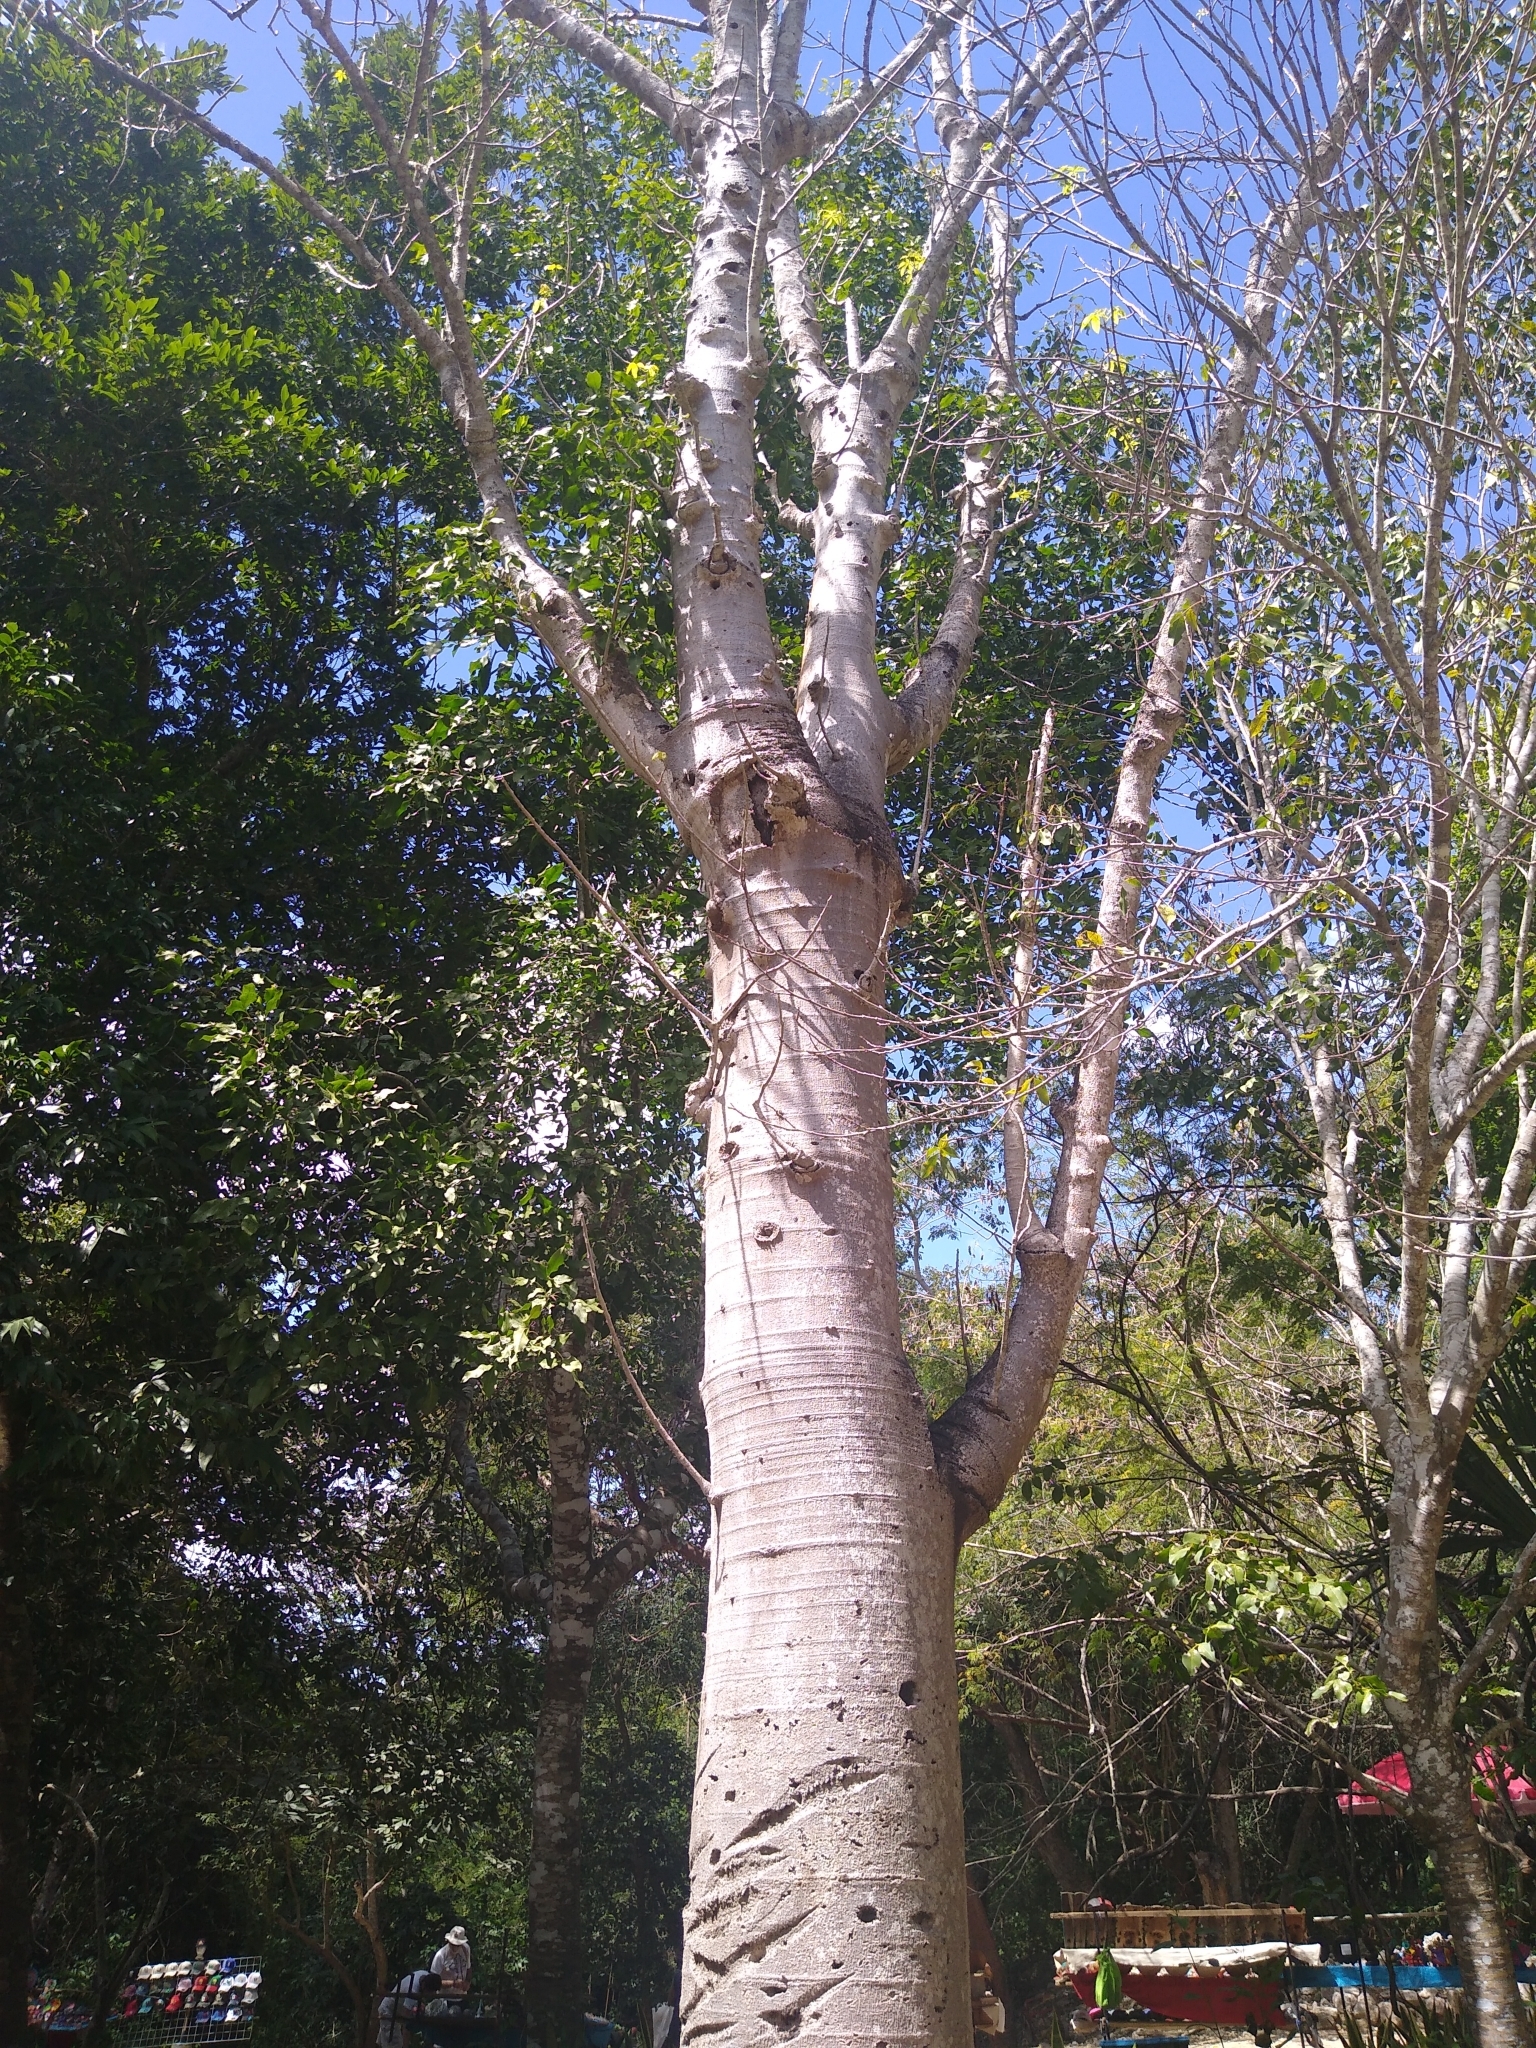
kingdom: Plantae
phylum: Tracheophyta
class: Magnoliopsida
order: Brassicales
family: Caricaceae
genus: Jacaratia
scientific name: Jacaratia mexicana
